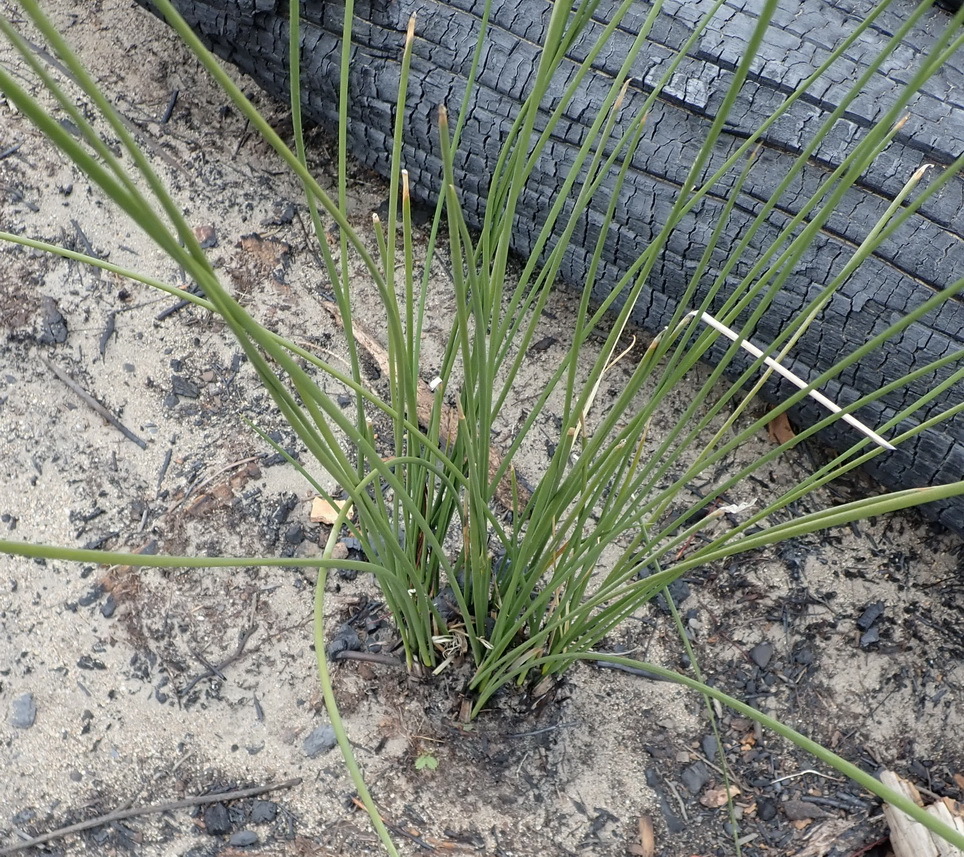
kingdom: Plantae
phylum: Tracheophyta
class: Liliopsida
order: Asparagales
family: Iridaceae
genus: Bobartia
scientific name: Bobartia aphylla
